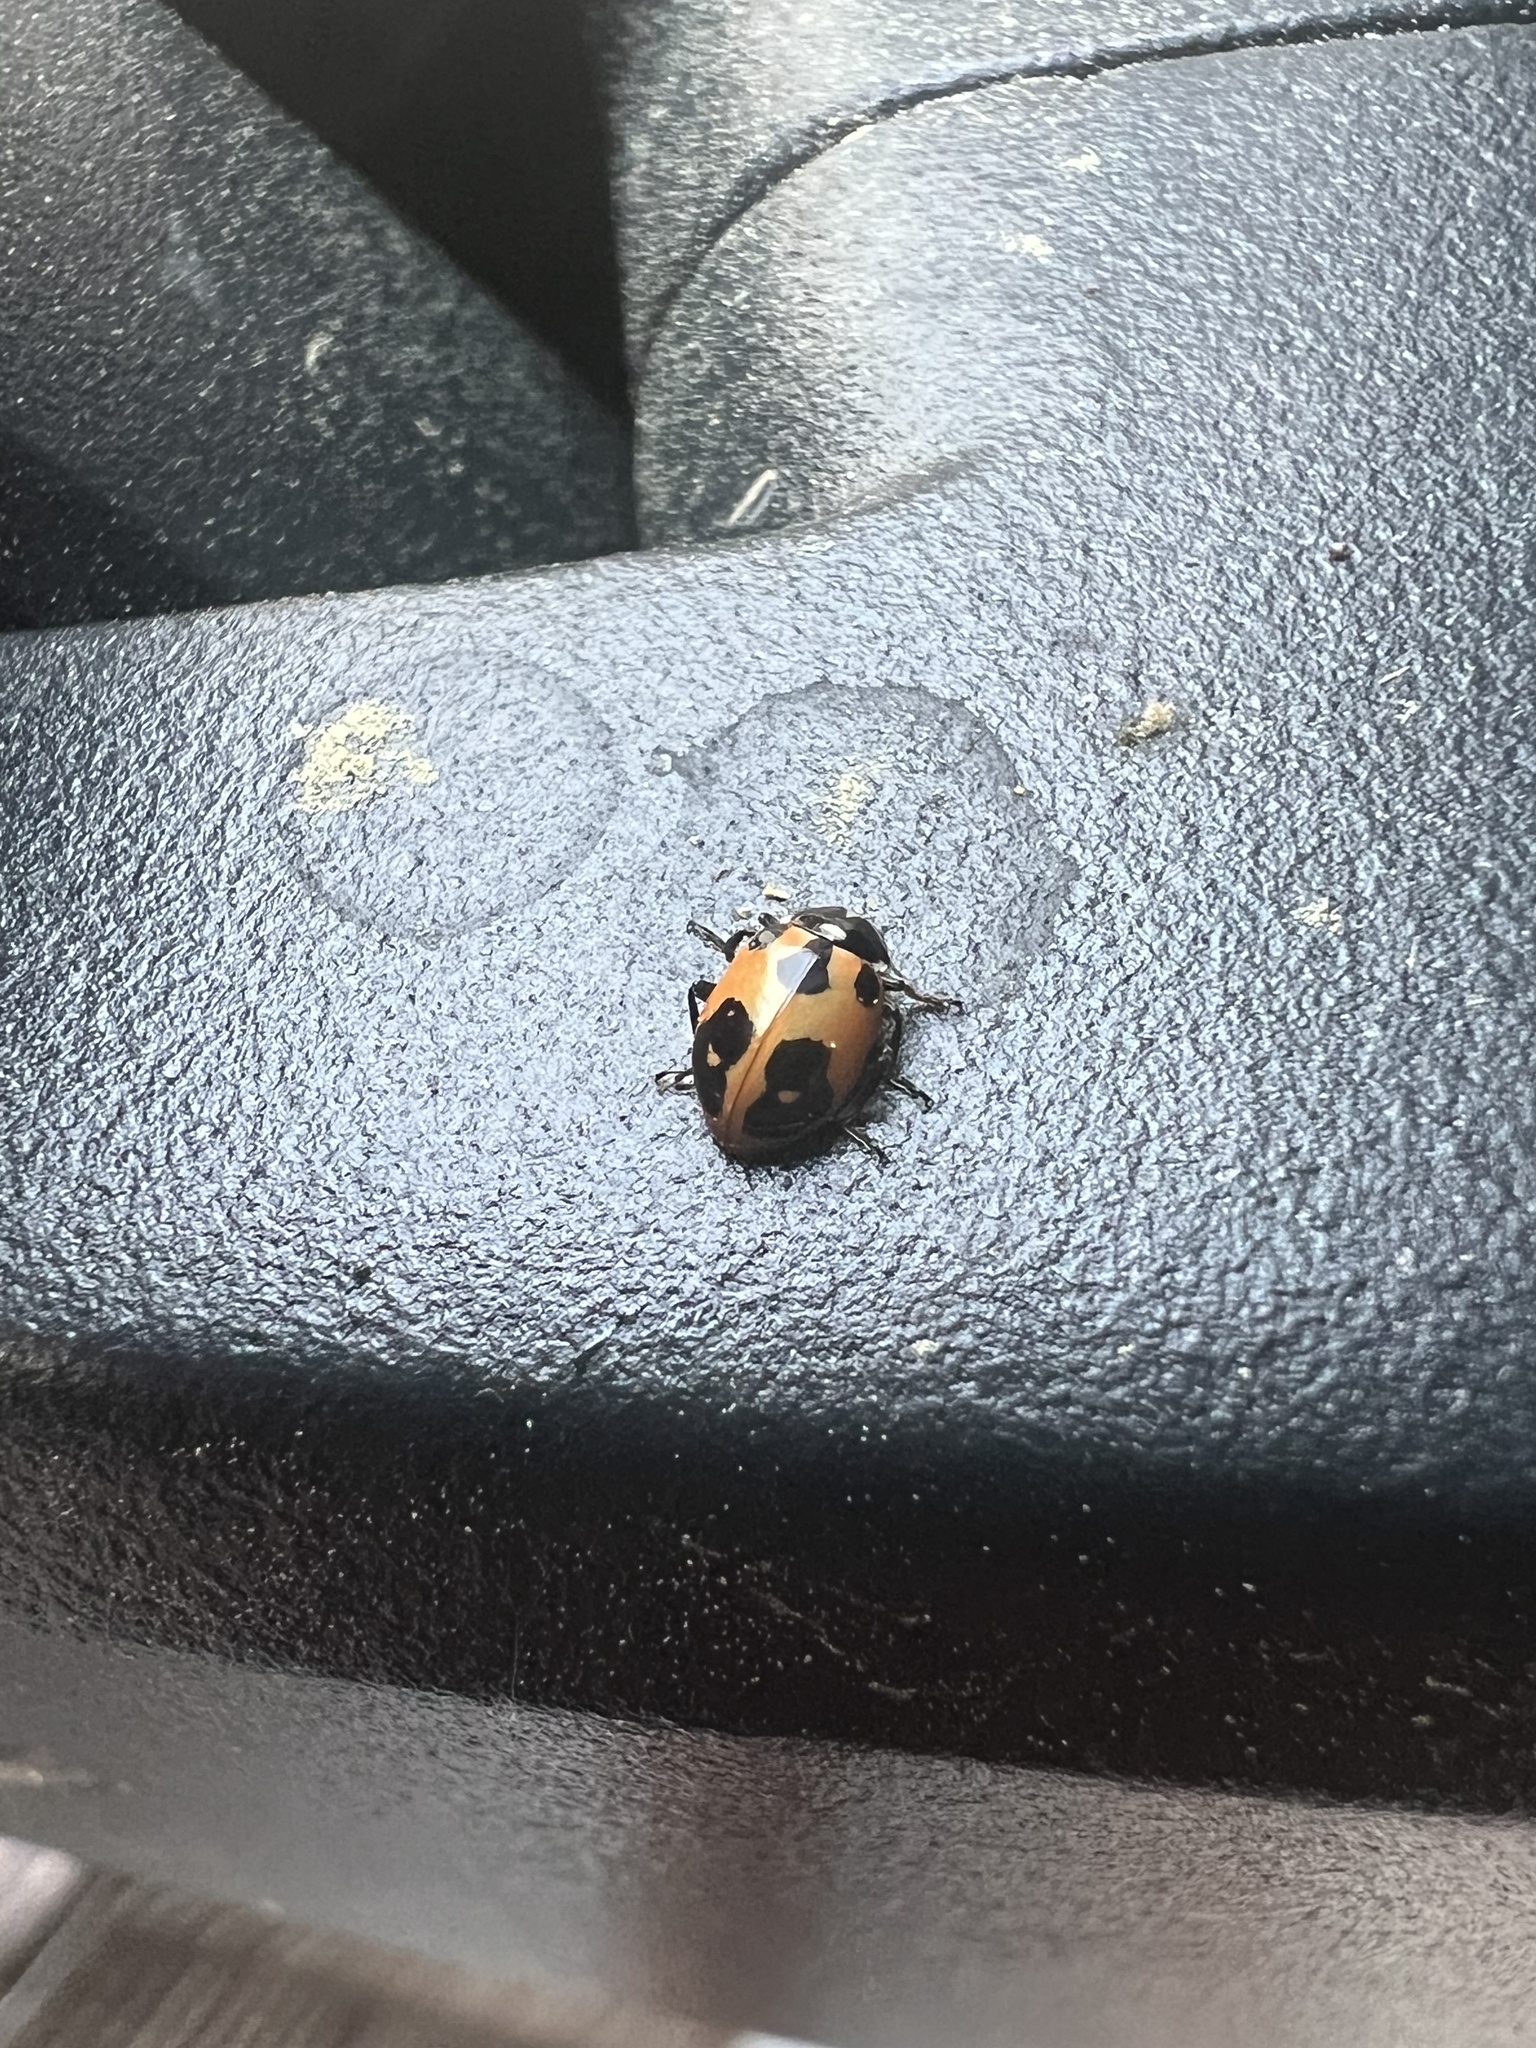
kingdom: Animalia
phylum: Arthropoda
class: Insecta
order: Coleoptera
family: Coccinellidae
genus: Hippodamia
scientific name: Hippodamia parenthesis
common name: Parenthesis lady beetle
